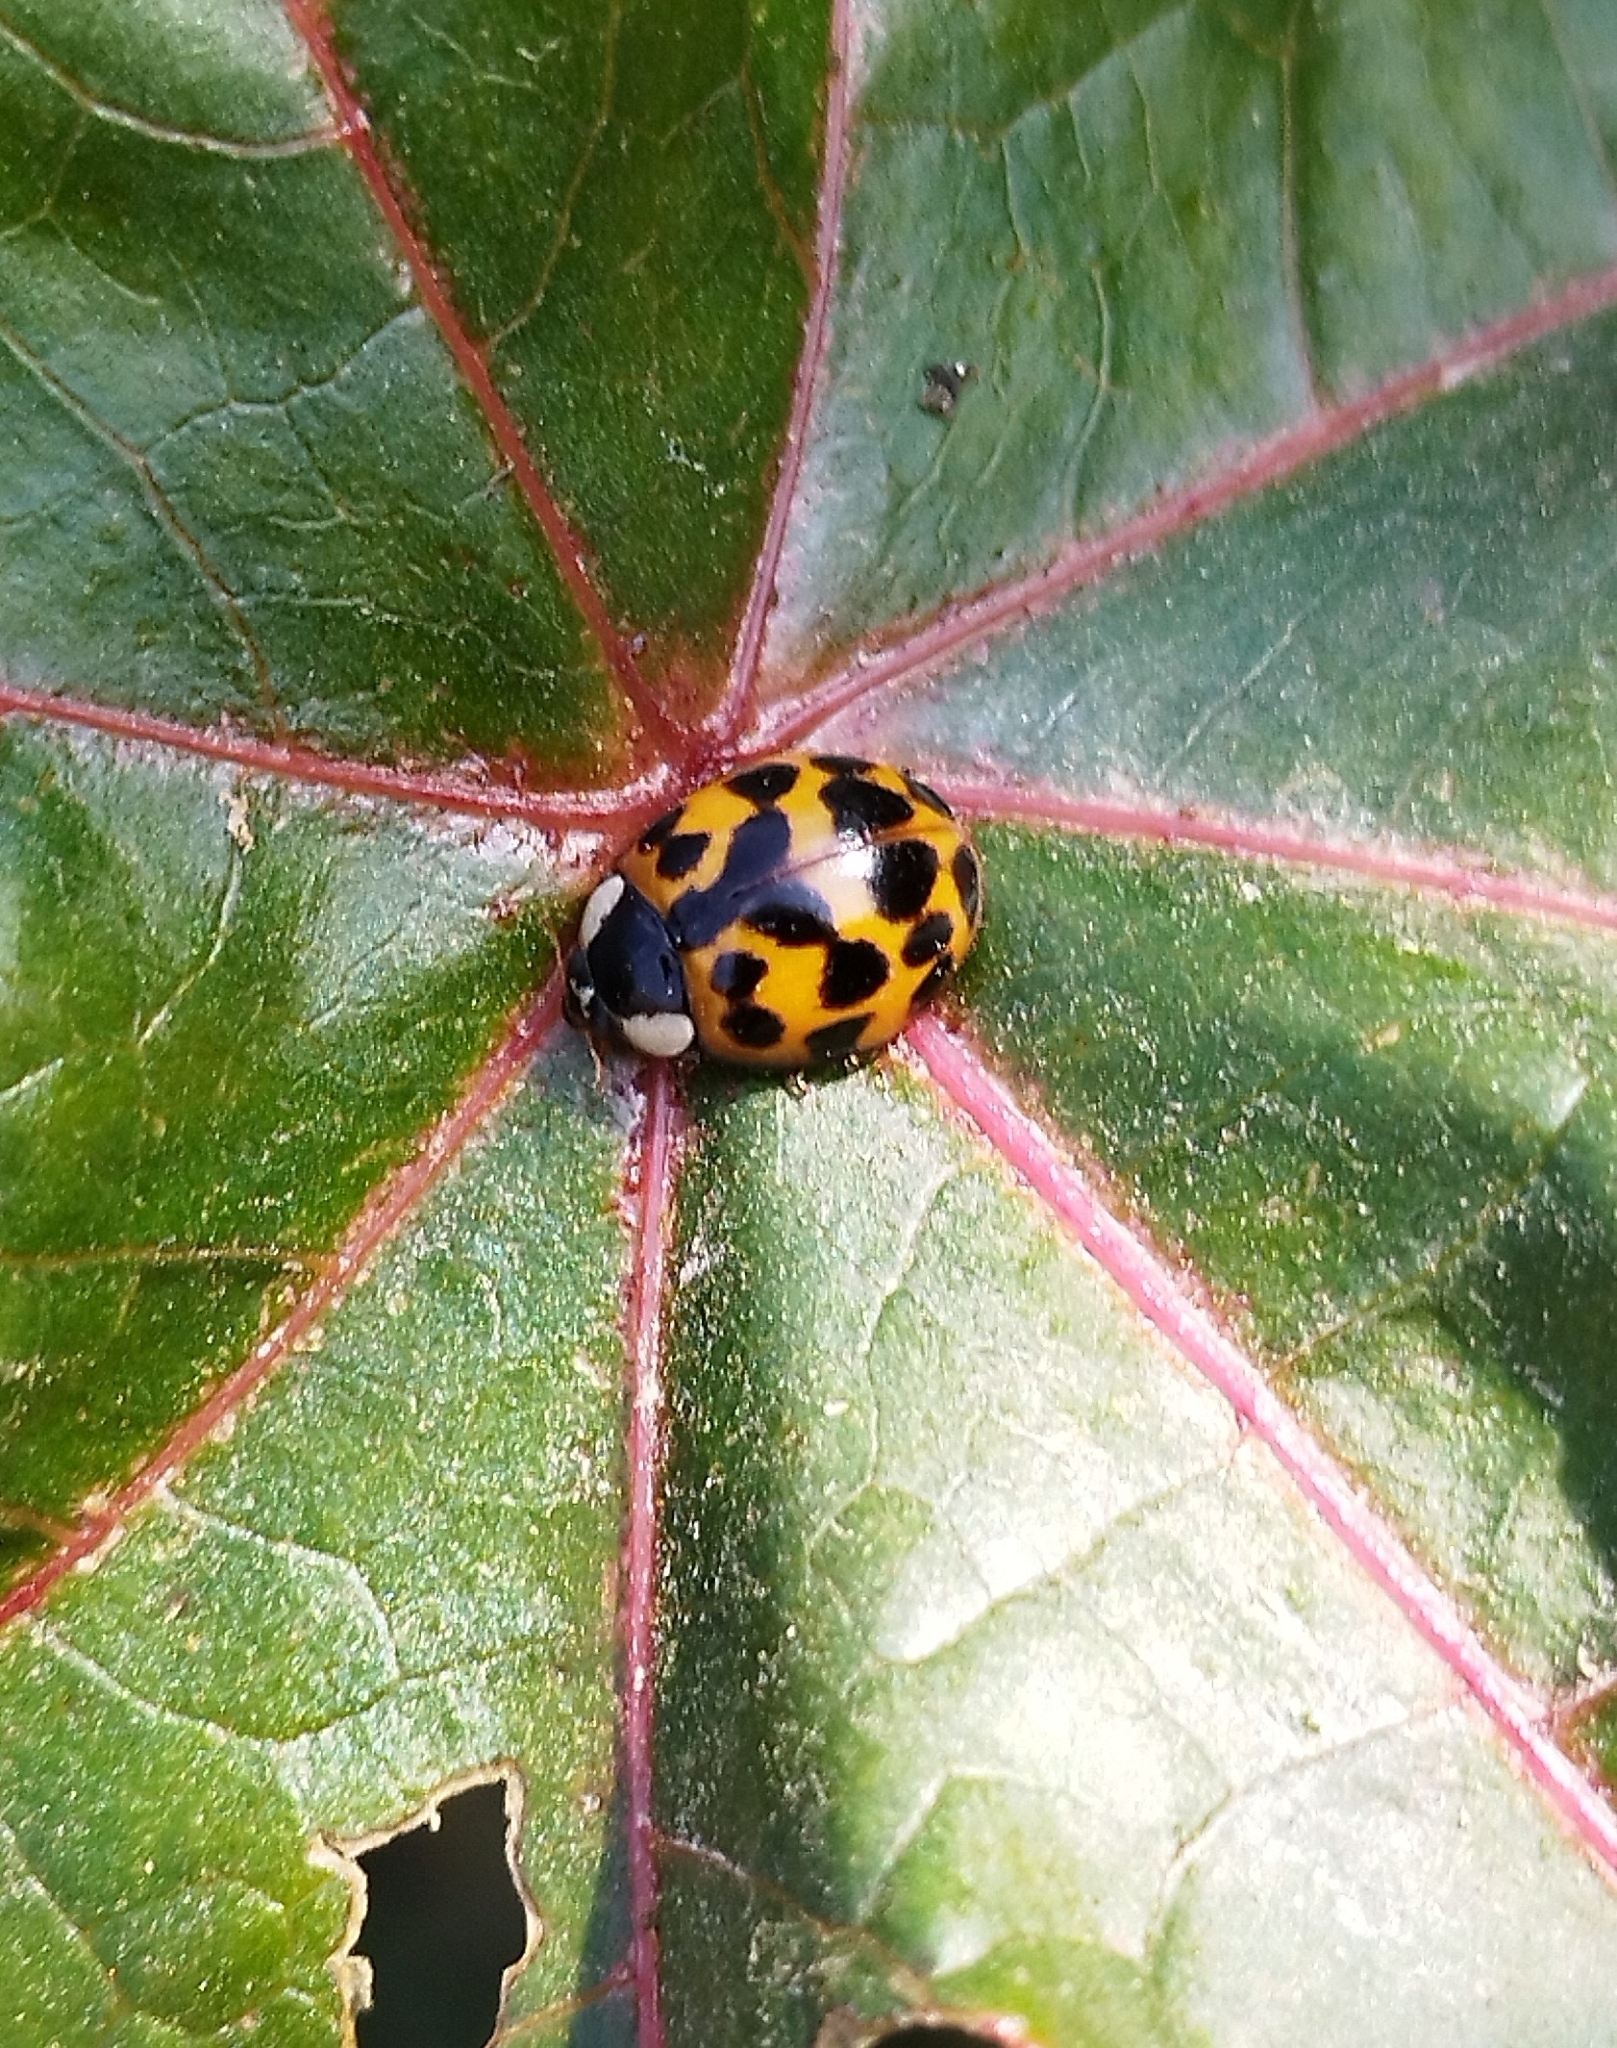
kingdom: Animalia
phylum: Arthropoda
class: Insecta
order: Coleoptera
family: Coccinellidae
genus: Harmonia
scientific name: Harmonia axyridis
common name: Harlequin ladybird
